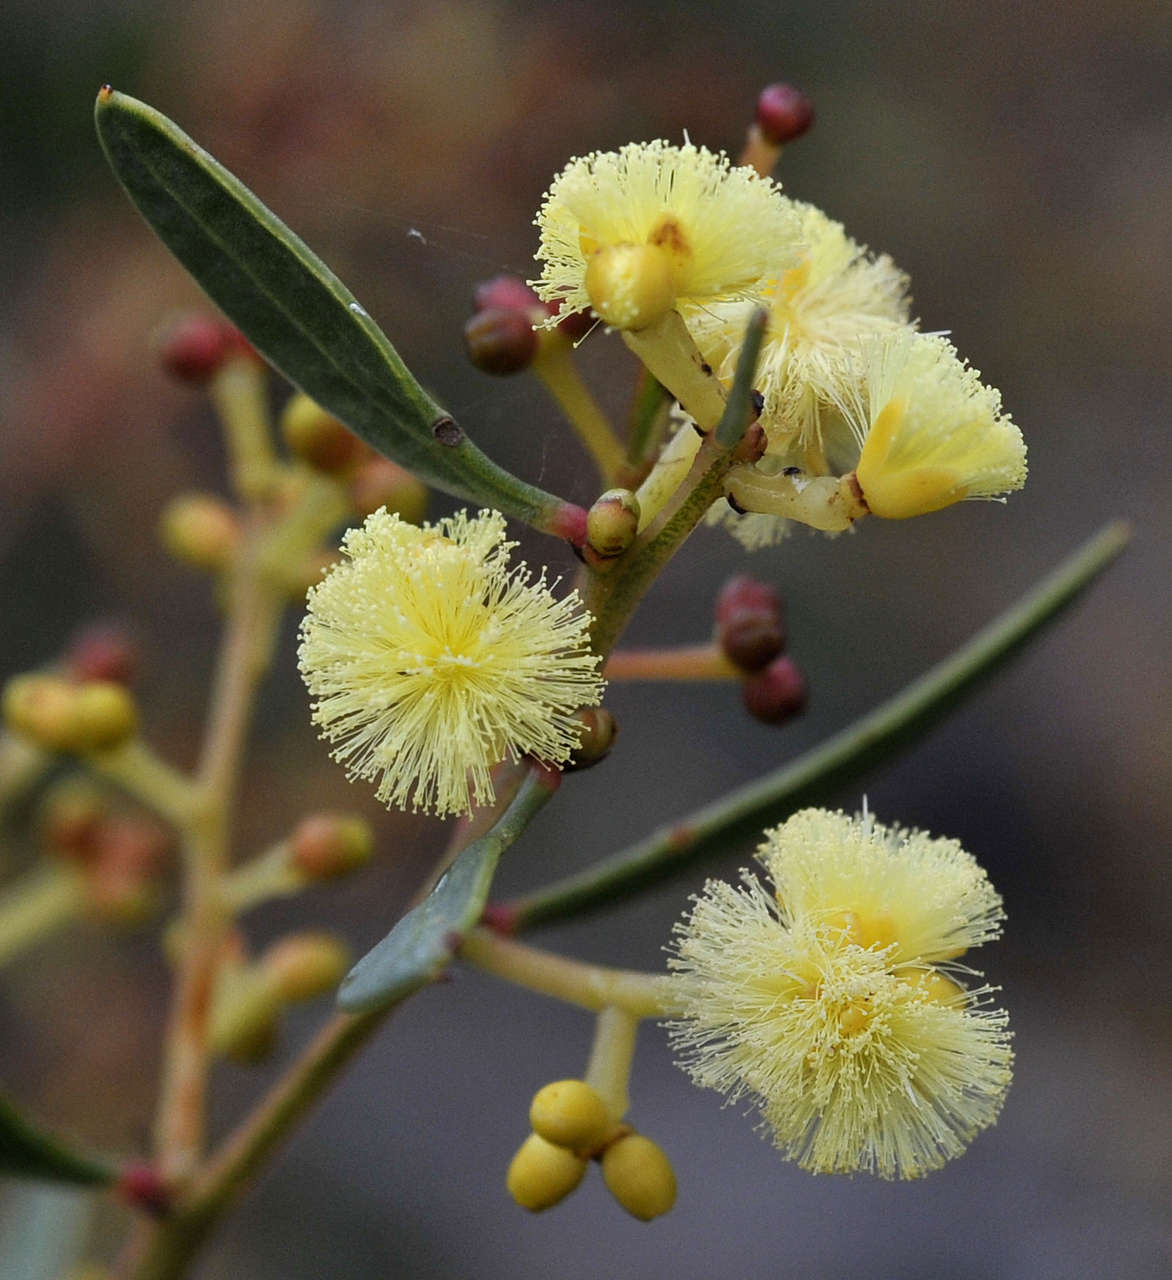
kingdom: Plantae
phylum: Tracheophyta
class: Magnoliopsida
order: Fabales
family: Fabaceae
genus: Acacia
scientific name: Acacia myrtifolia
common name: Myrtle wattle
